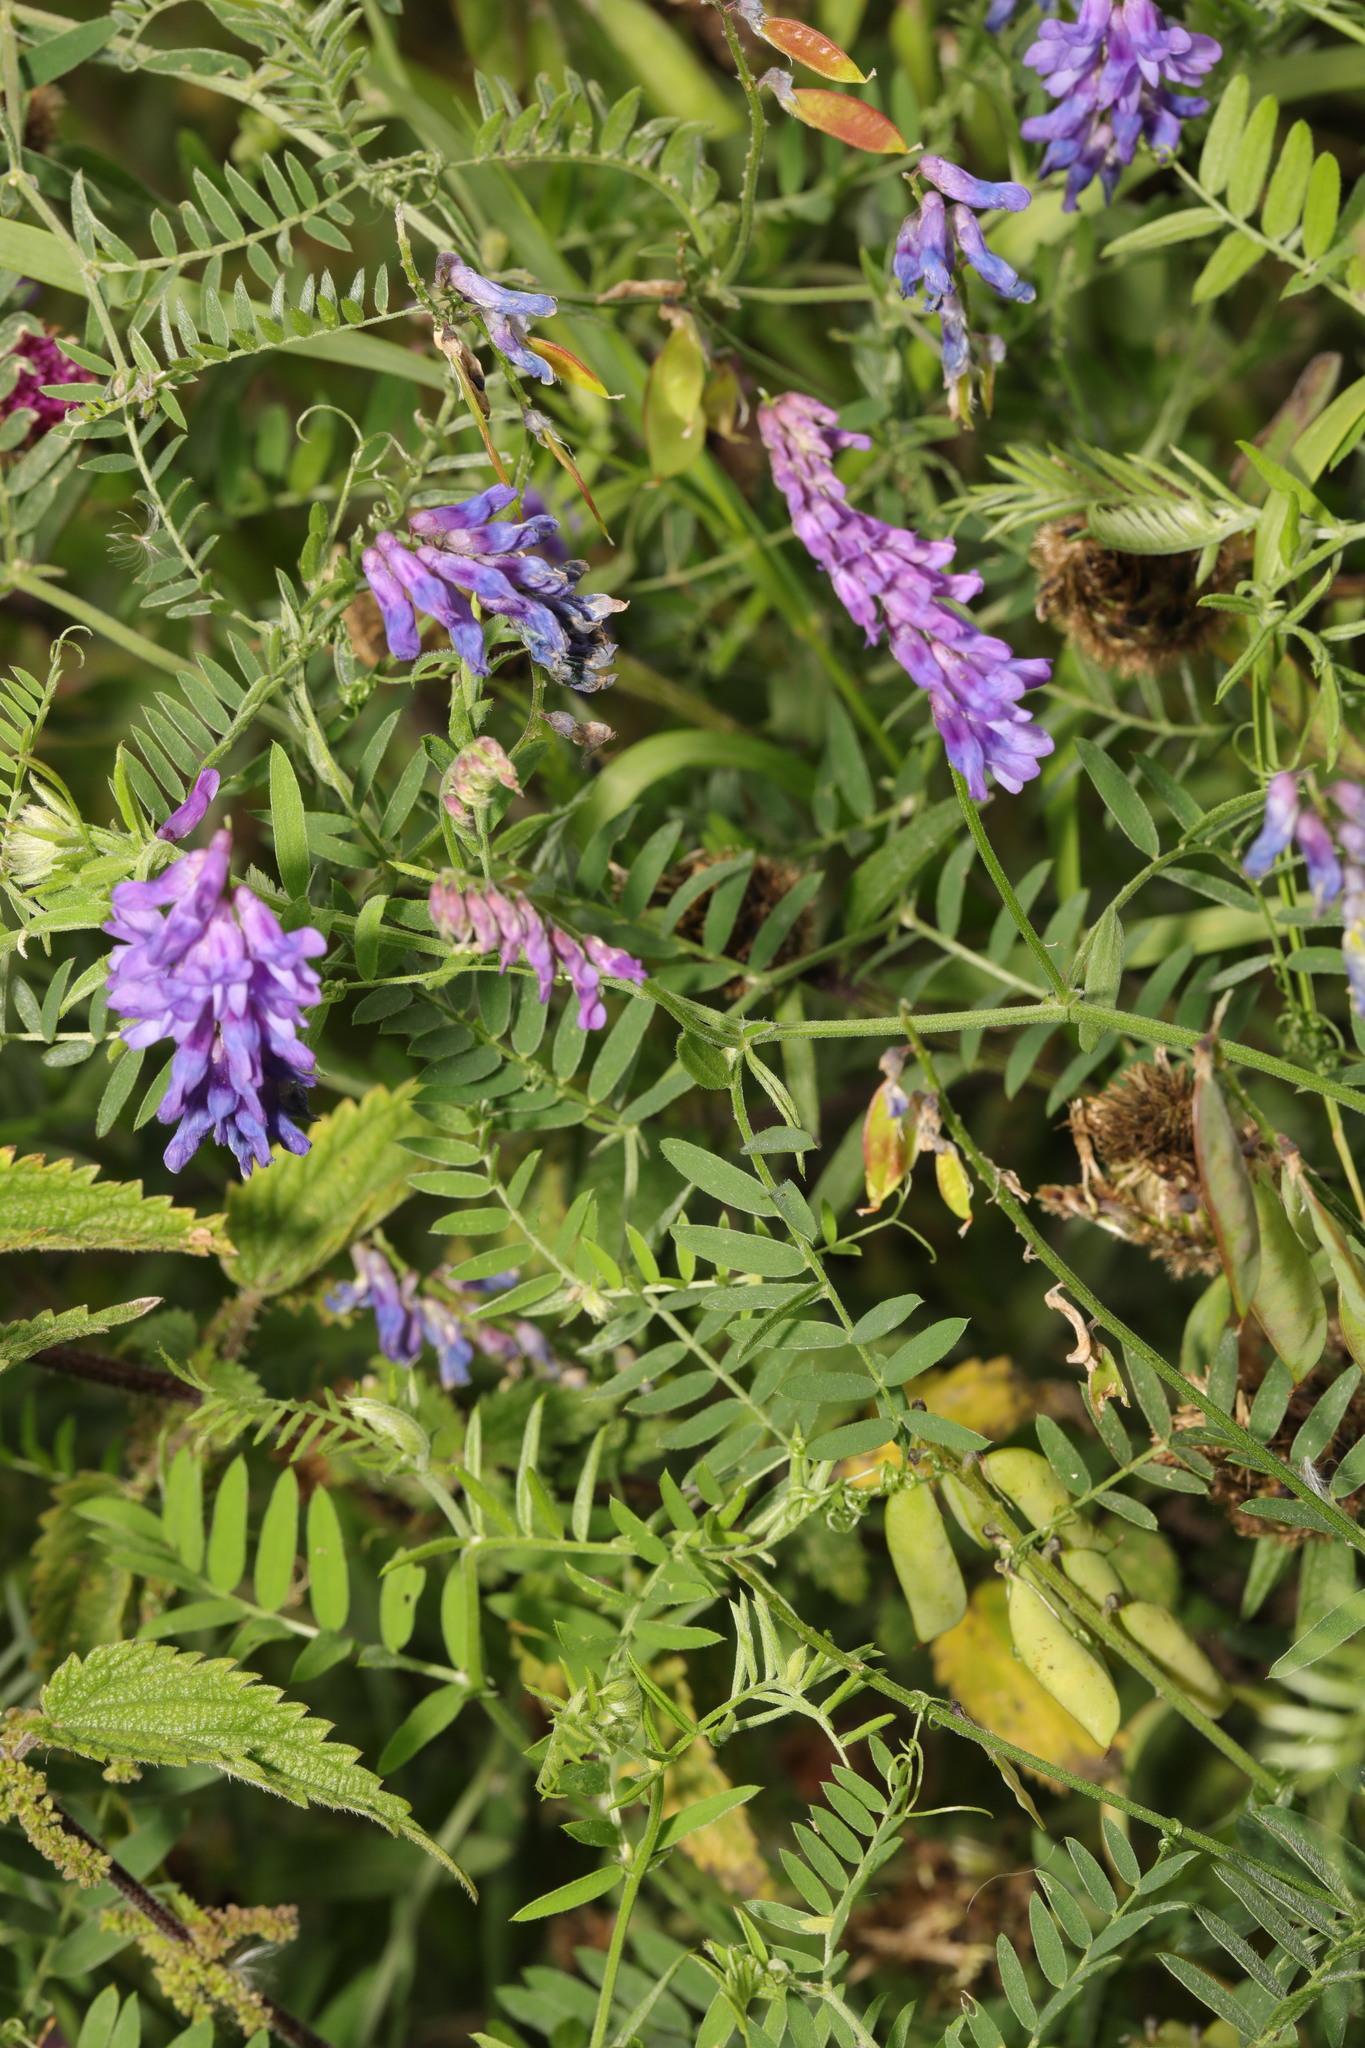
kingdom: Plantae
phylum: Tracheophyta
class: Magnoliopsida
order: Fabales
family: Fabaceae
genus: Vicia
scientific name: Vicia cracca
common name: Bird vetch
